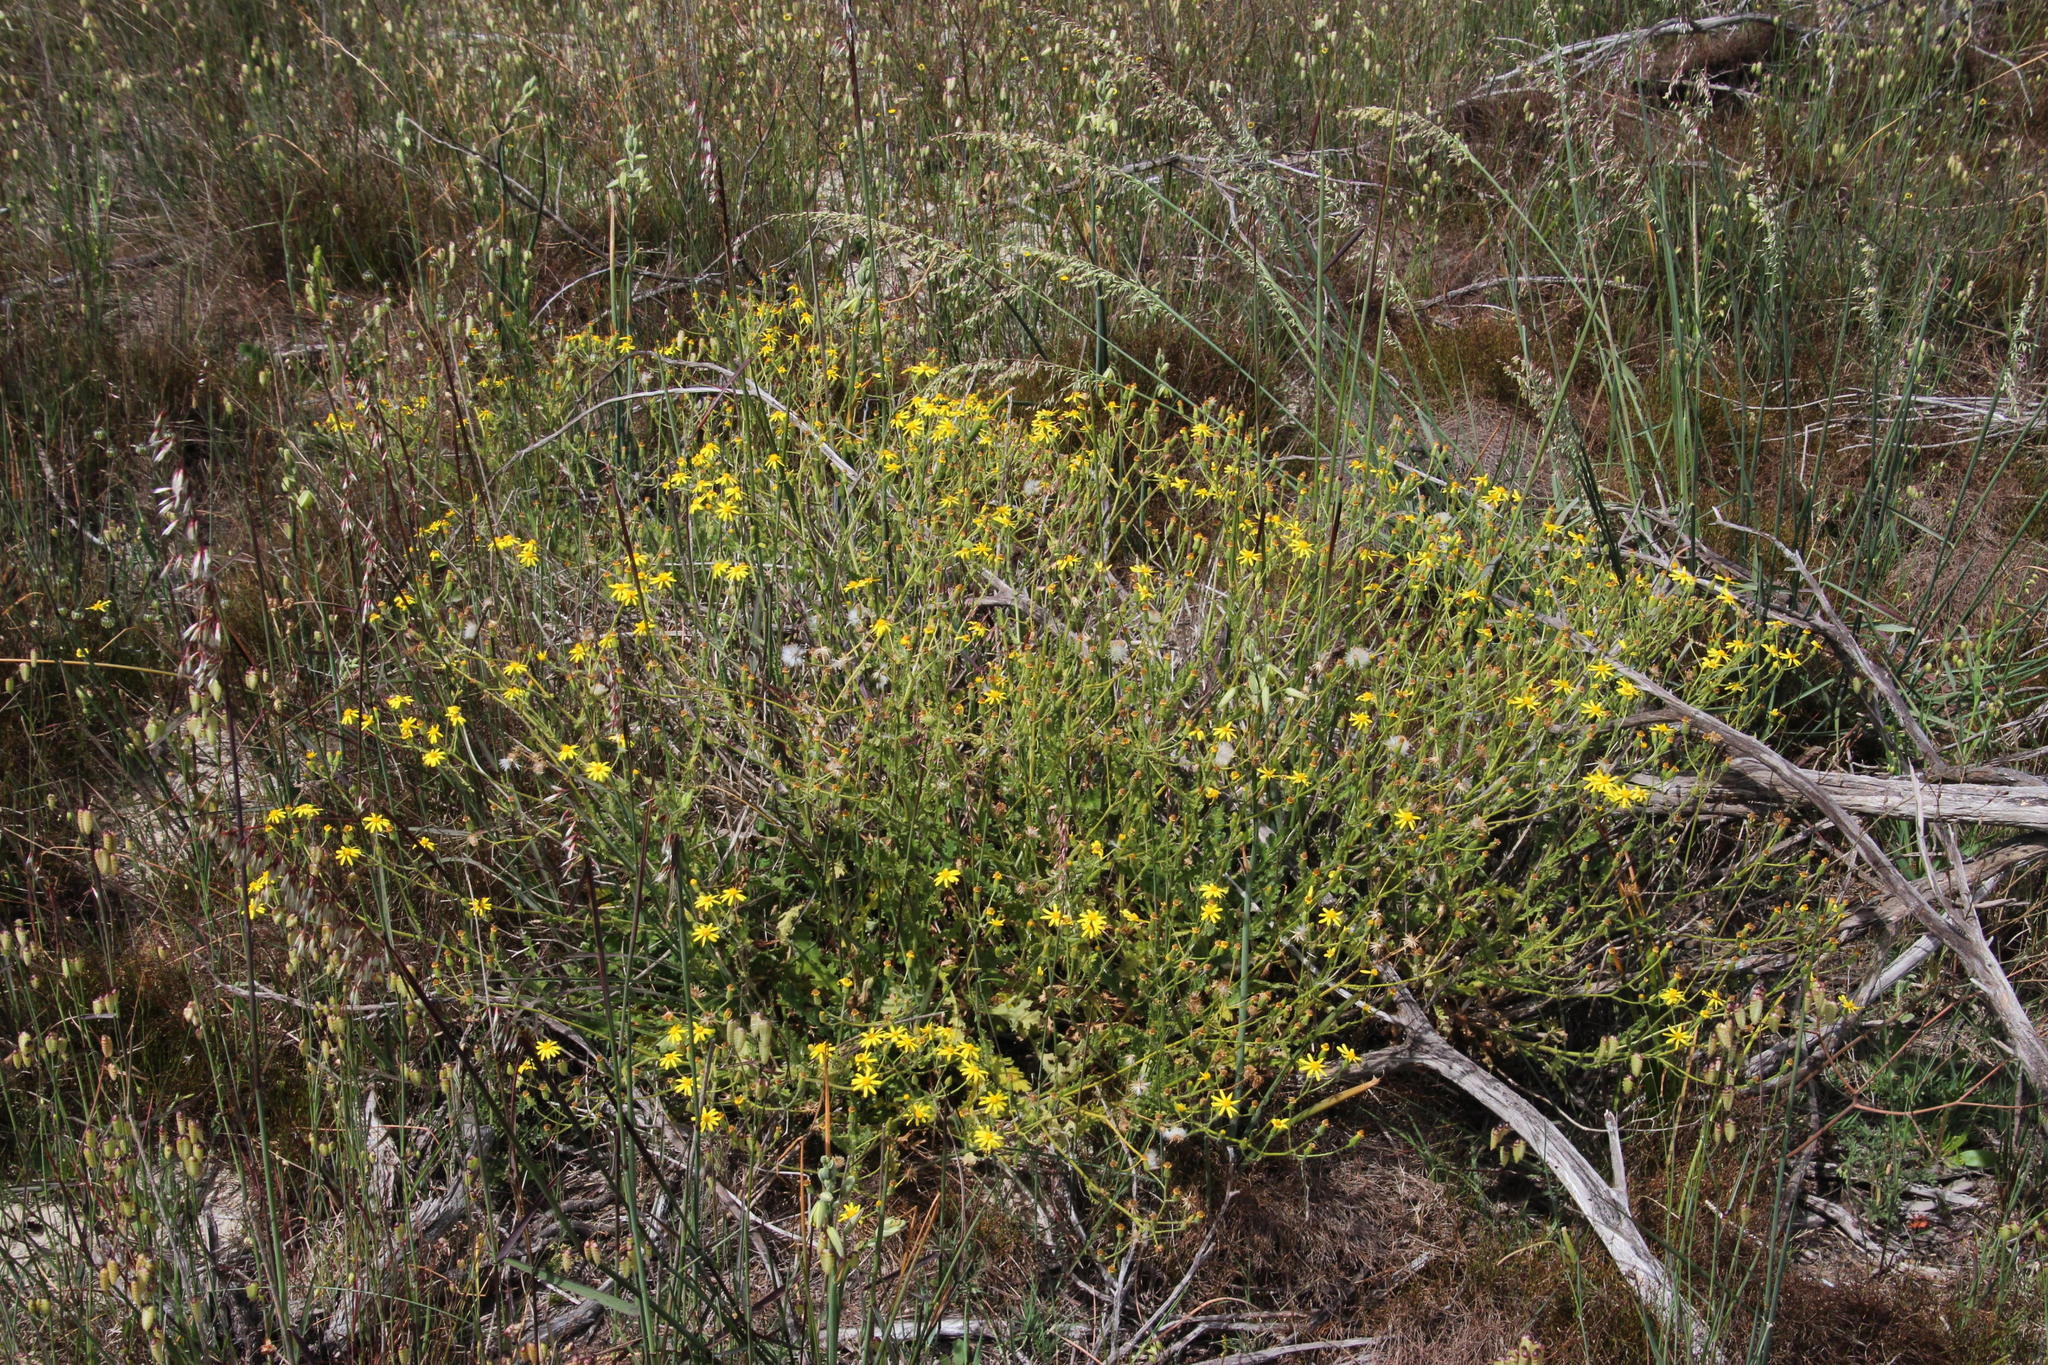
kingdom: Plantae
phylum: Tracheophyta
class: Magnoliopsida
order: Asterales
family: Asteraceae
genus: Senecio
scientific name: Senecio hastatus
